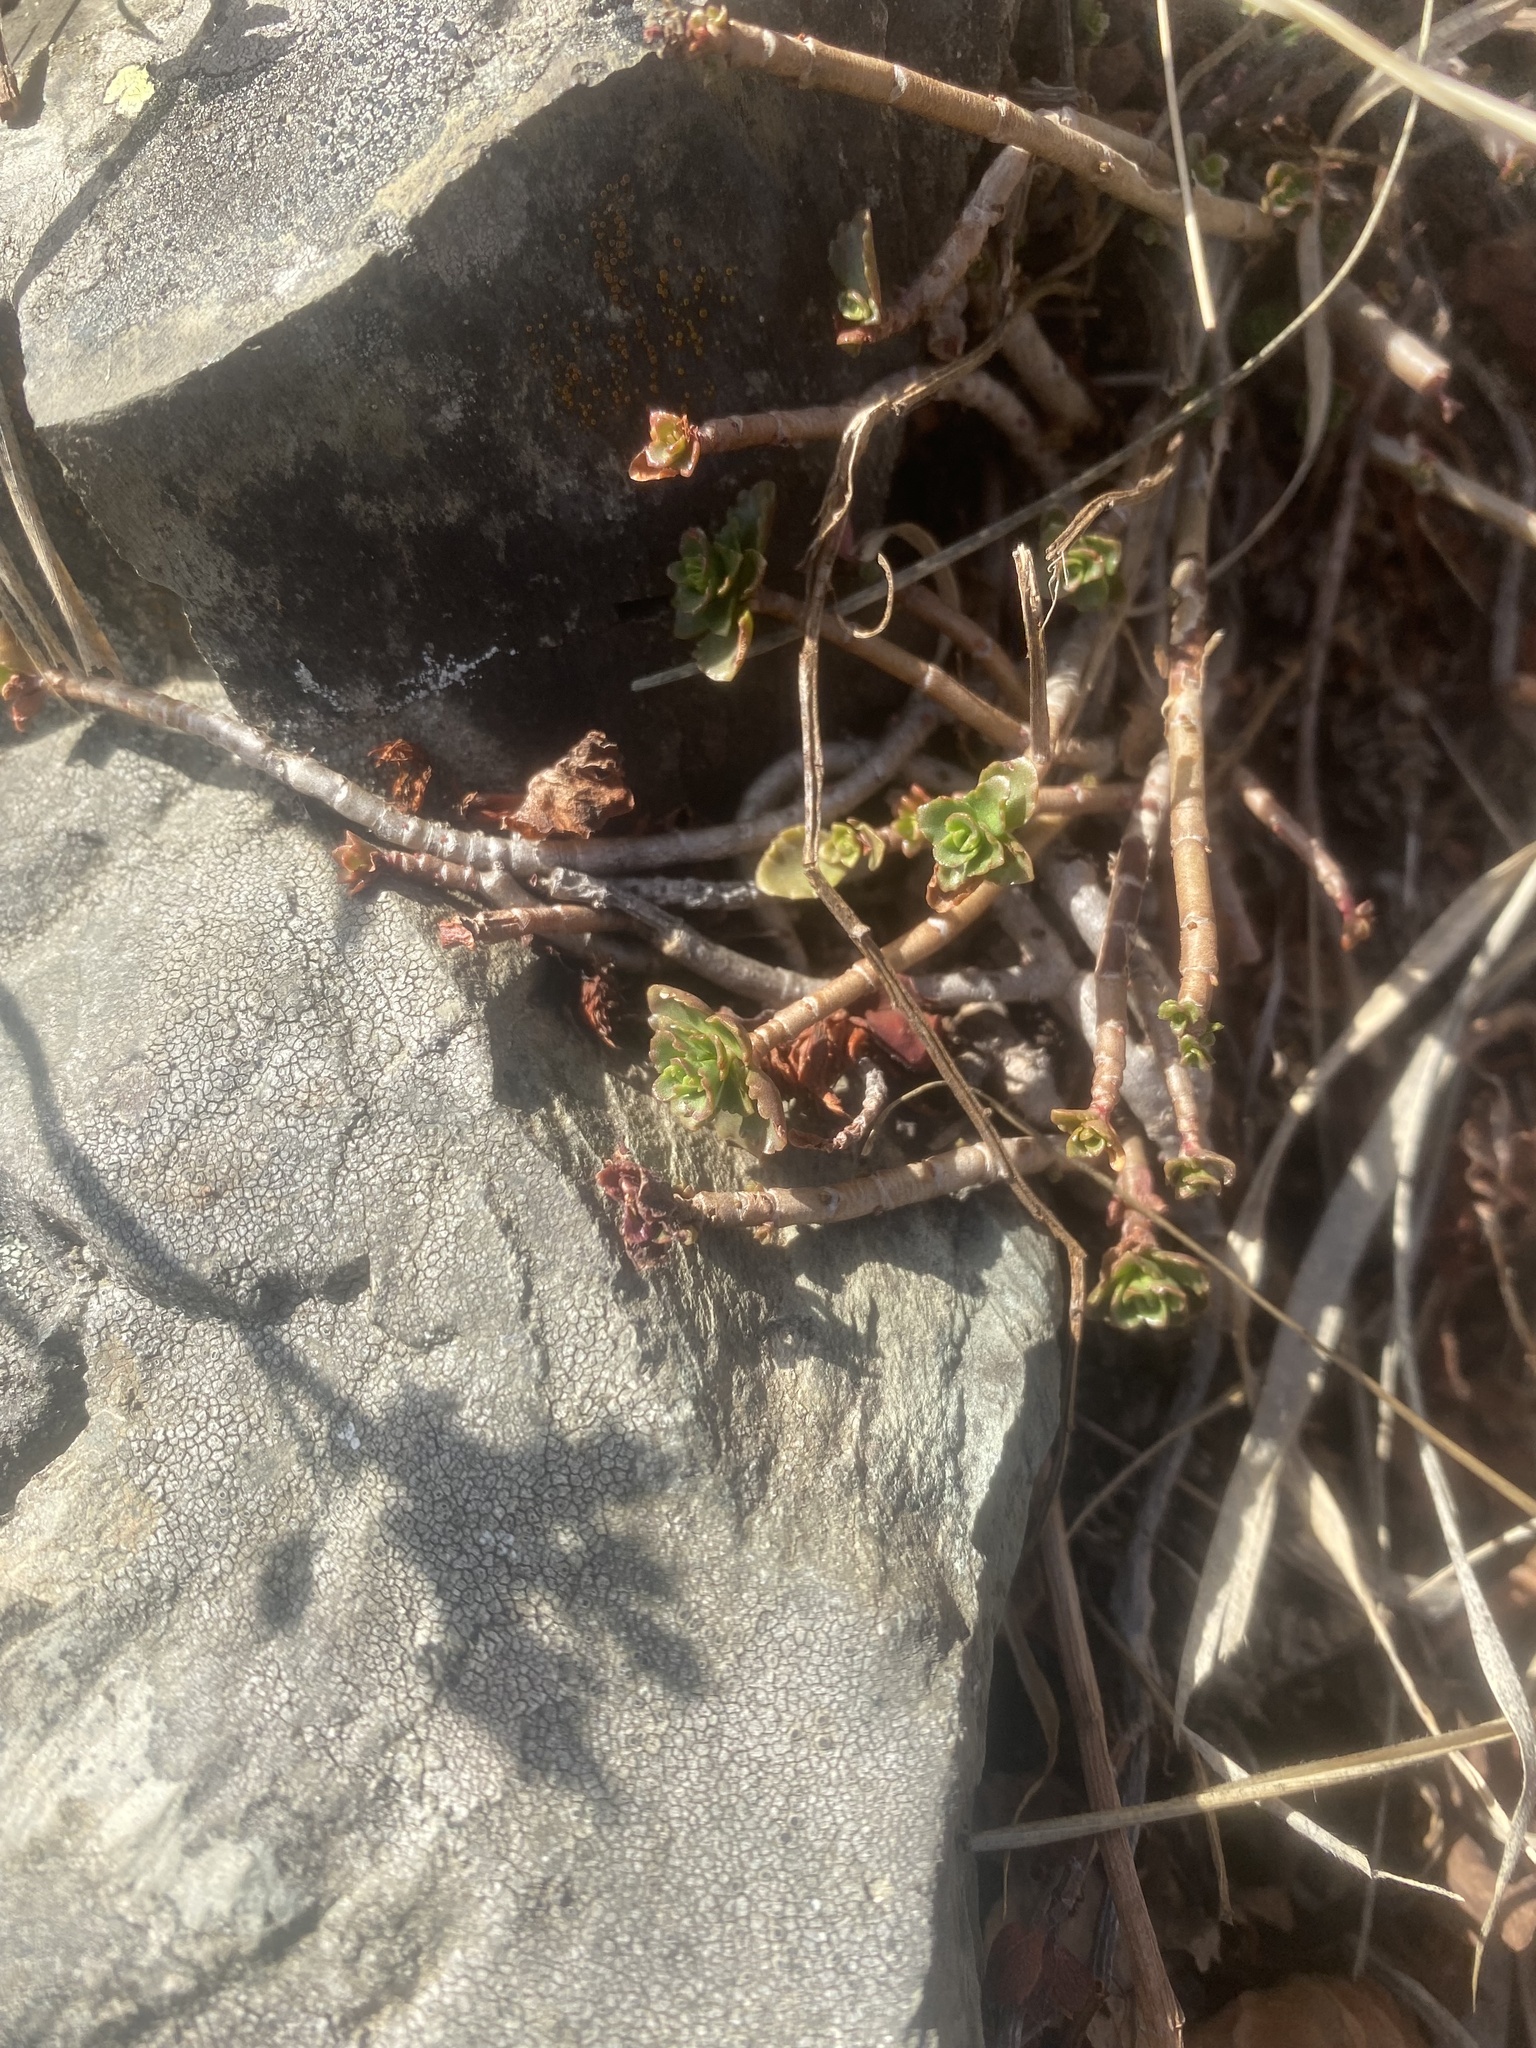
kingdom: Plantae
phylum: Tracheophyta
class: Magnoliopsida
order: Saxifragales
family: Crassulaceae
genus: Phedimus
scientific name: Phedimus spurius
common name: Caucasian stonecrop
